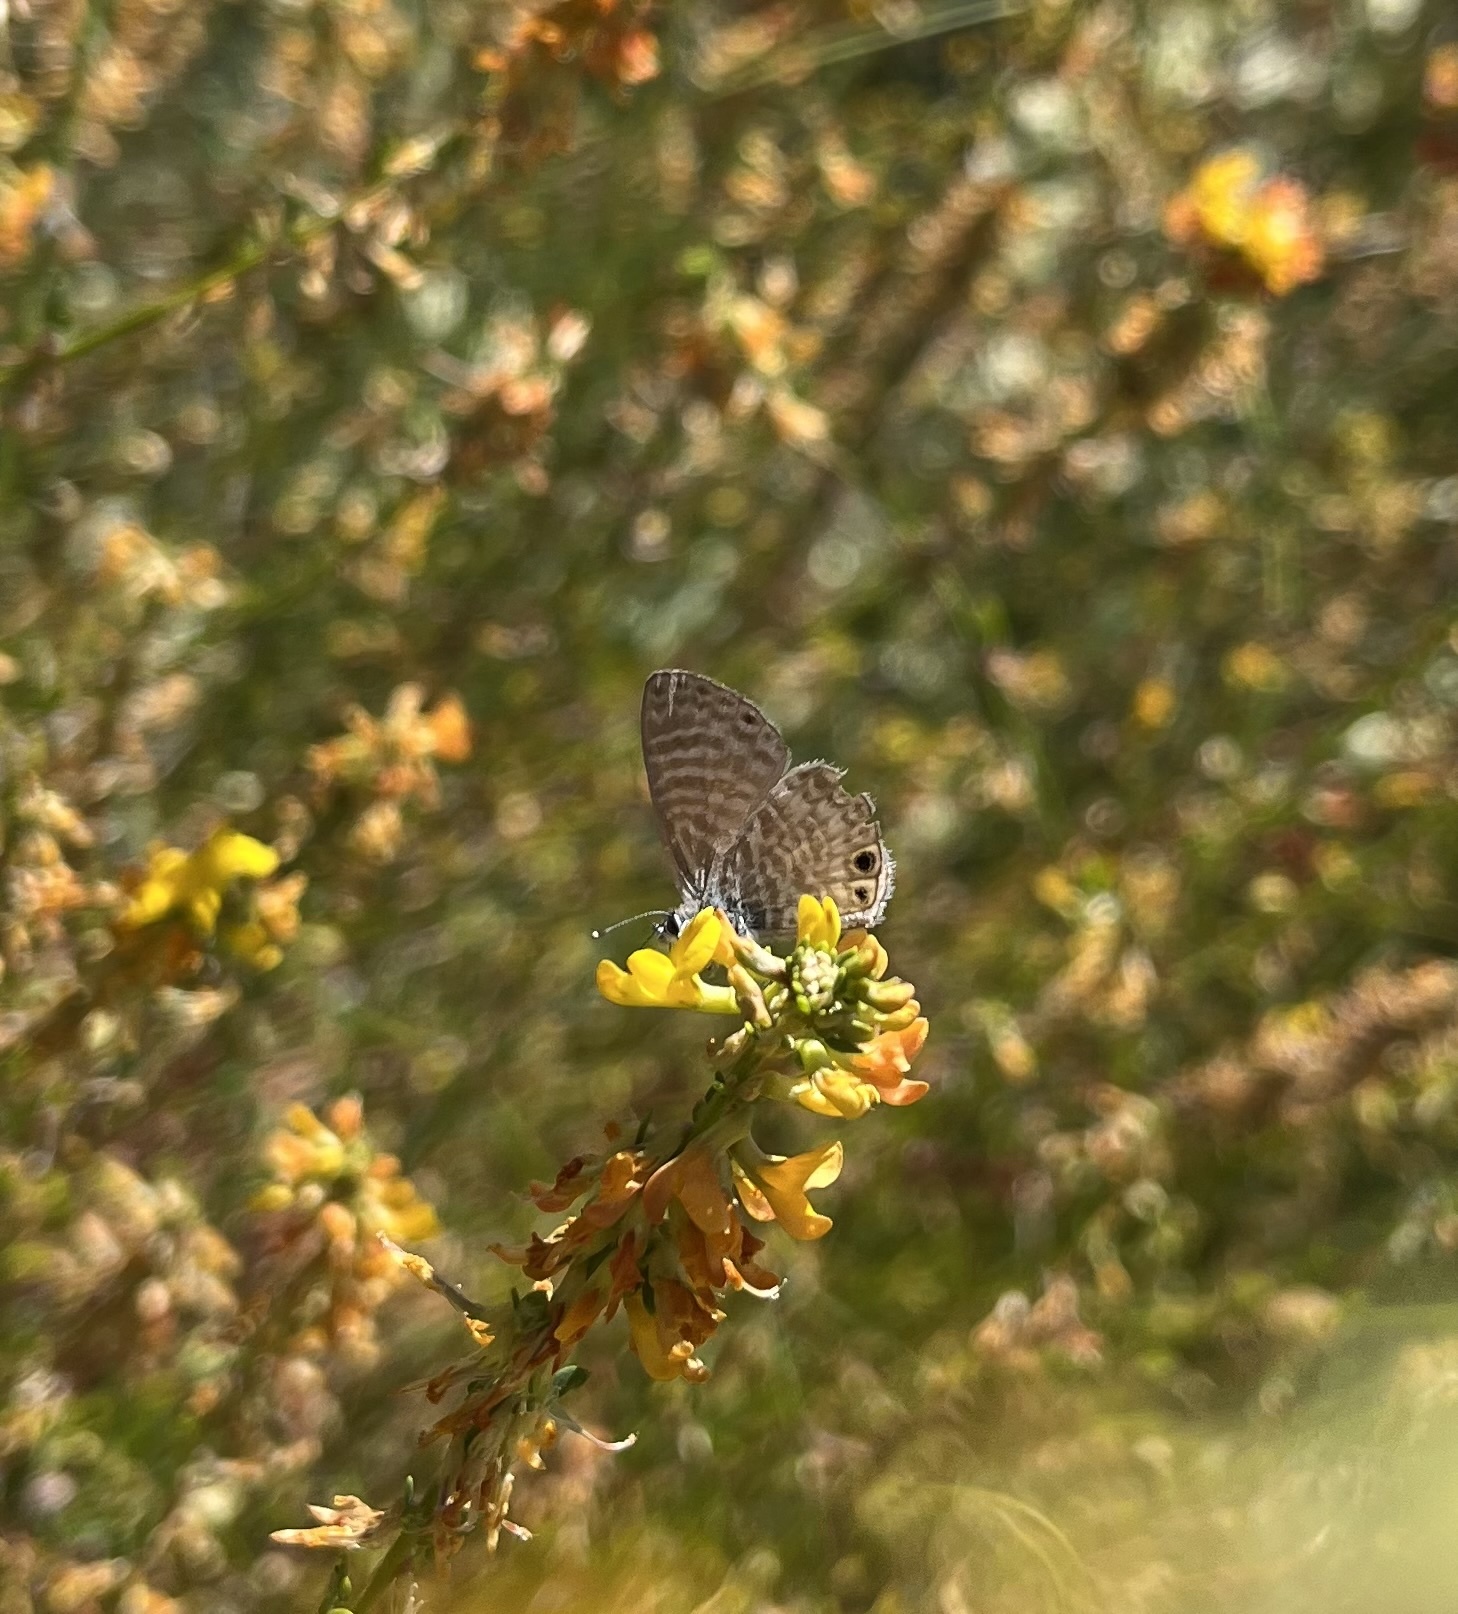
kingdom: Animalia
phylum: Arthropoda
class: Insecta
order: Lepidoptera
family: Lycaenidae
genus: Leptotes
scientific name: Leptotes marina
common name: Marine blue
